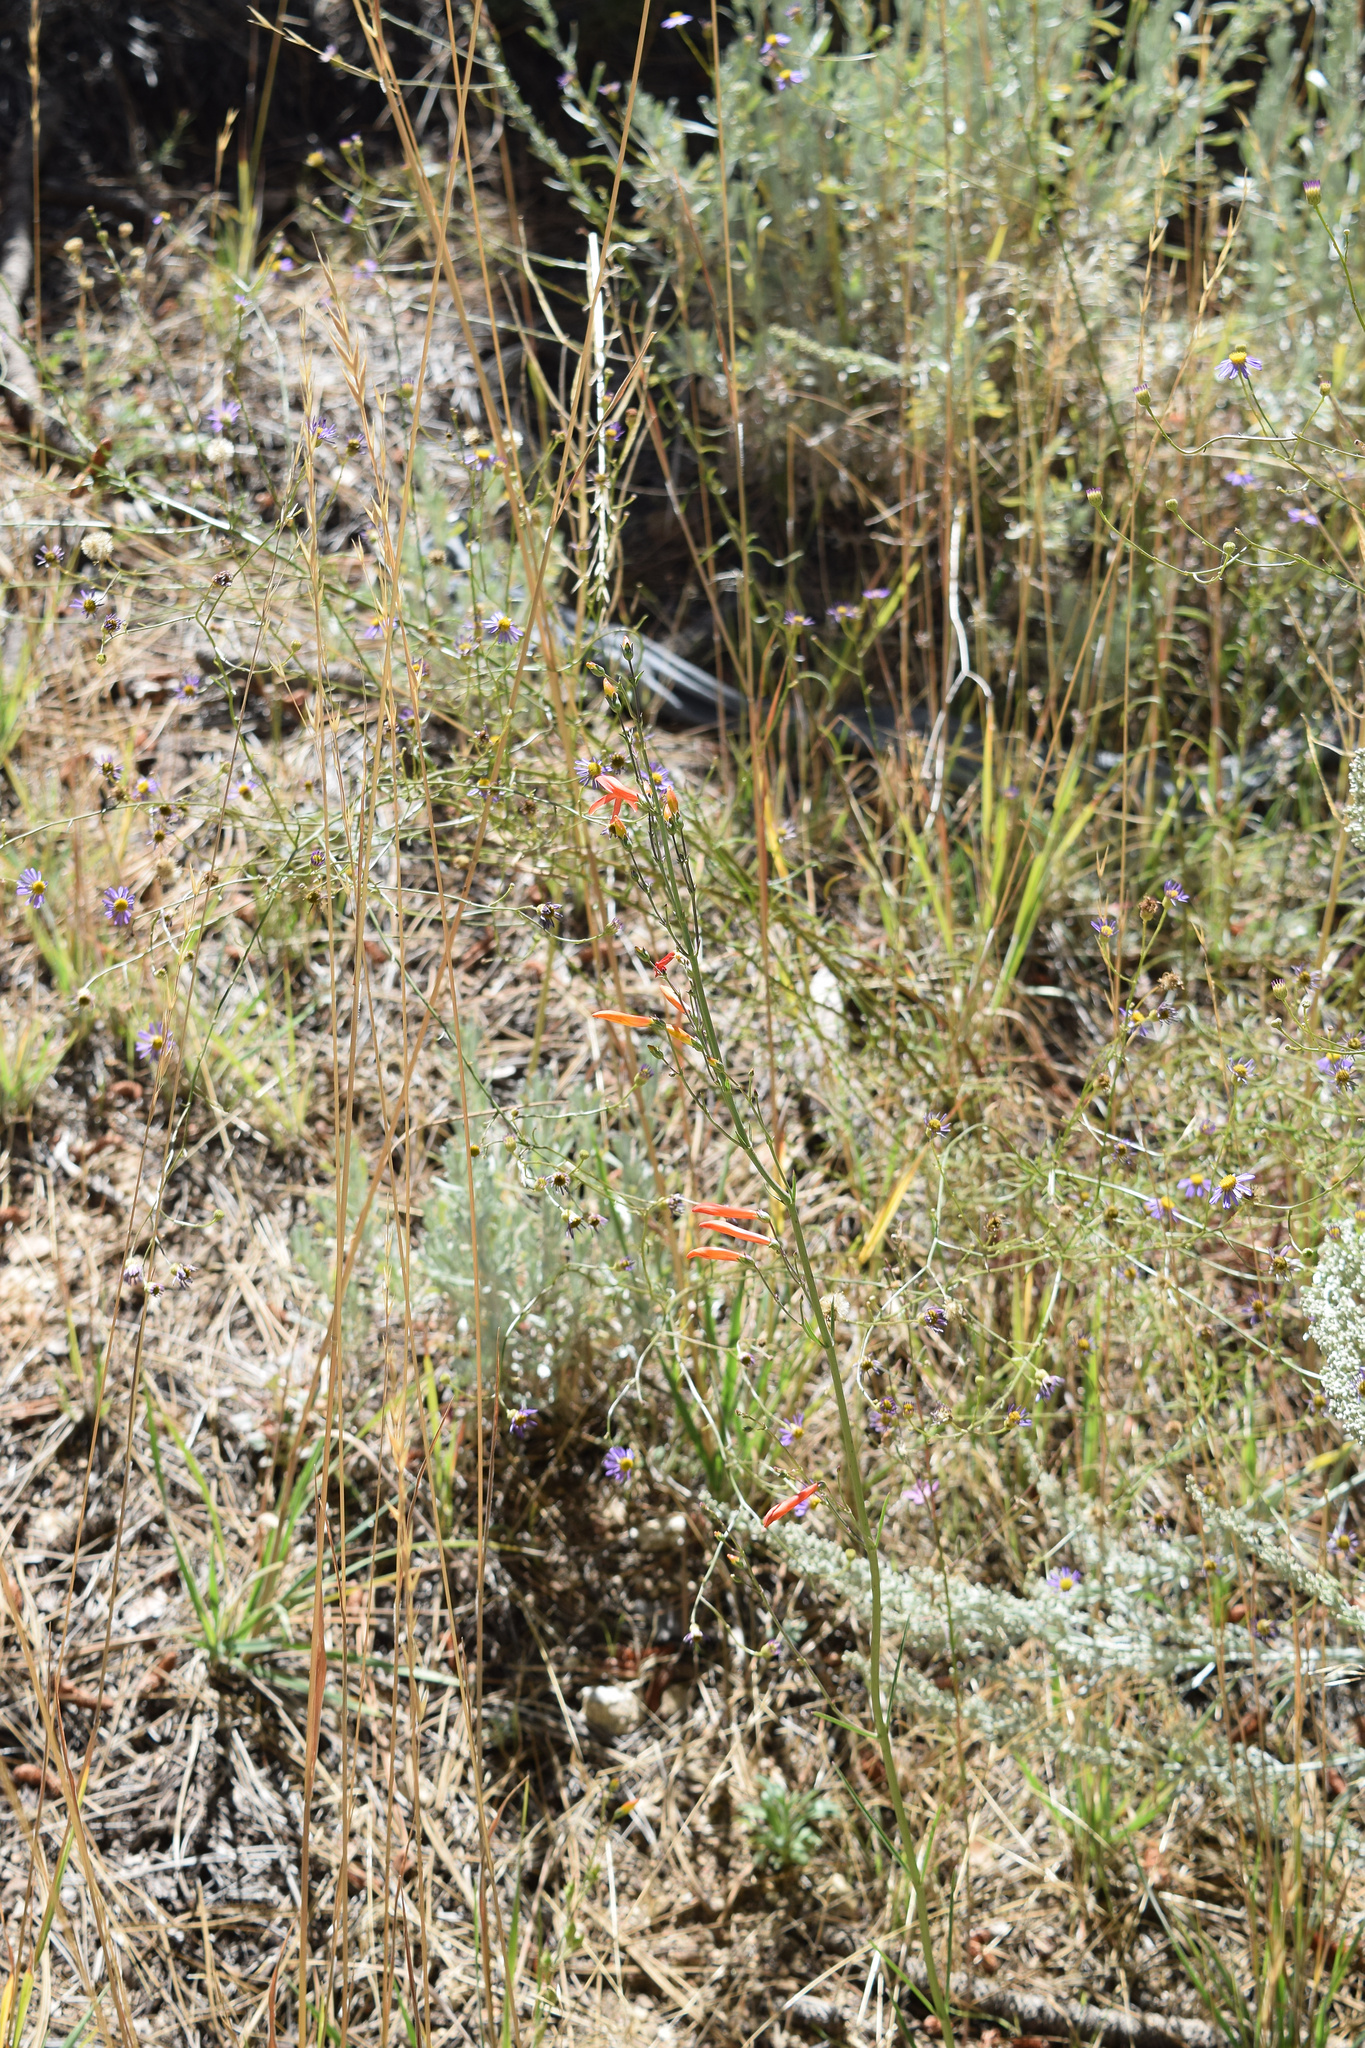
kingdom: Plantae
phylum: Tracheophyta
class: Magnoliopsida
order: Lamiales
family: Plantaginaceae
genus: Penstemon
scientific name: Penstemon labrosus
